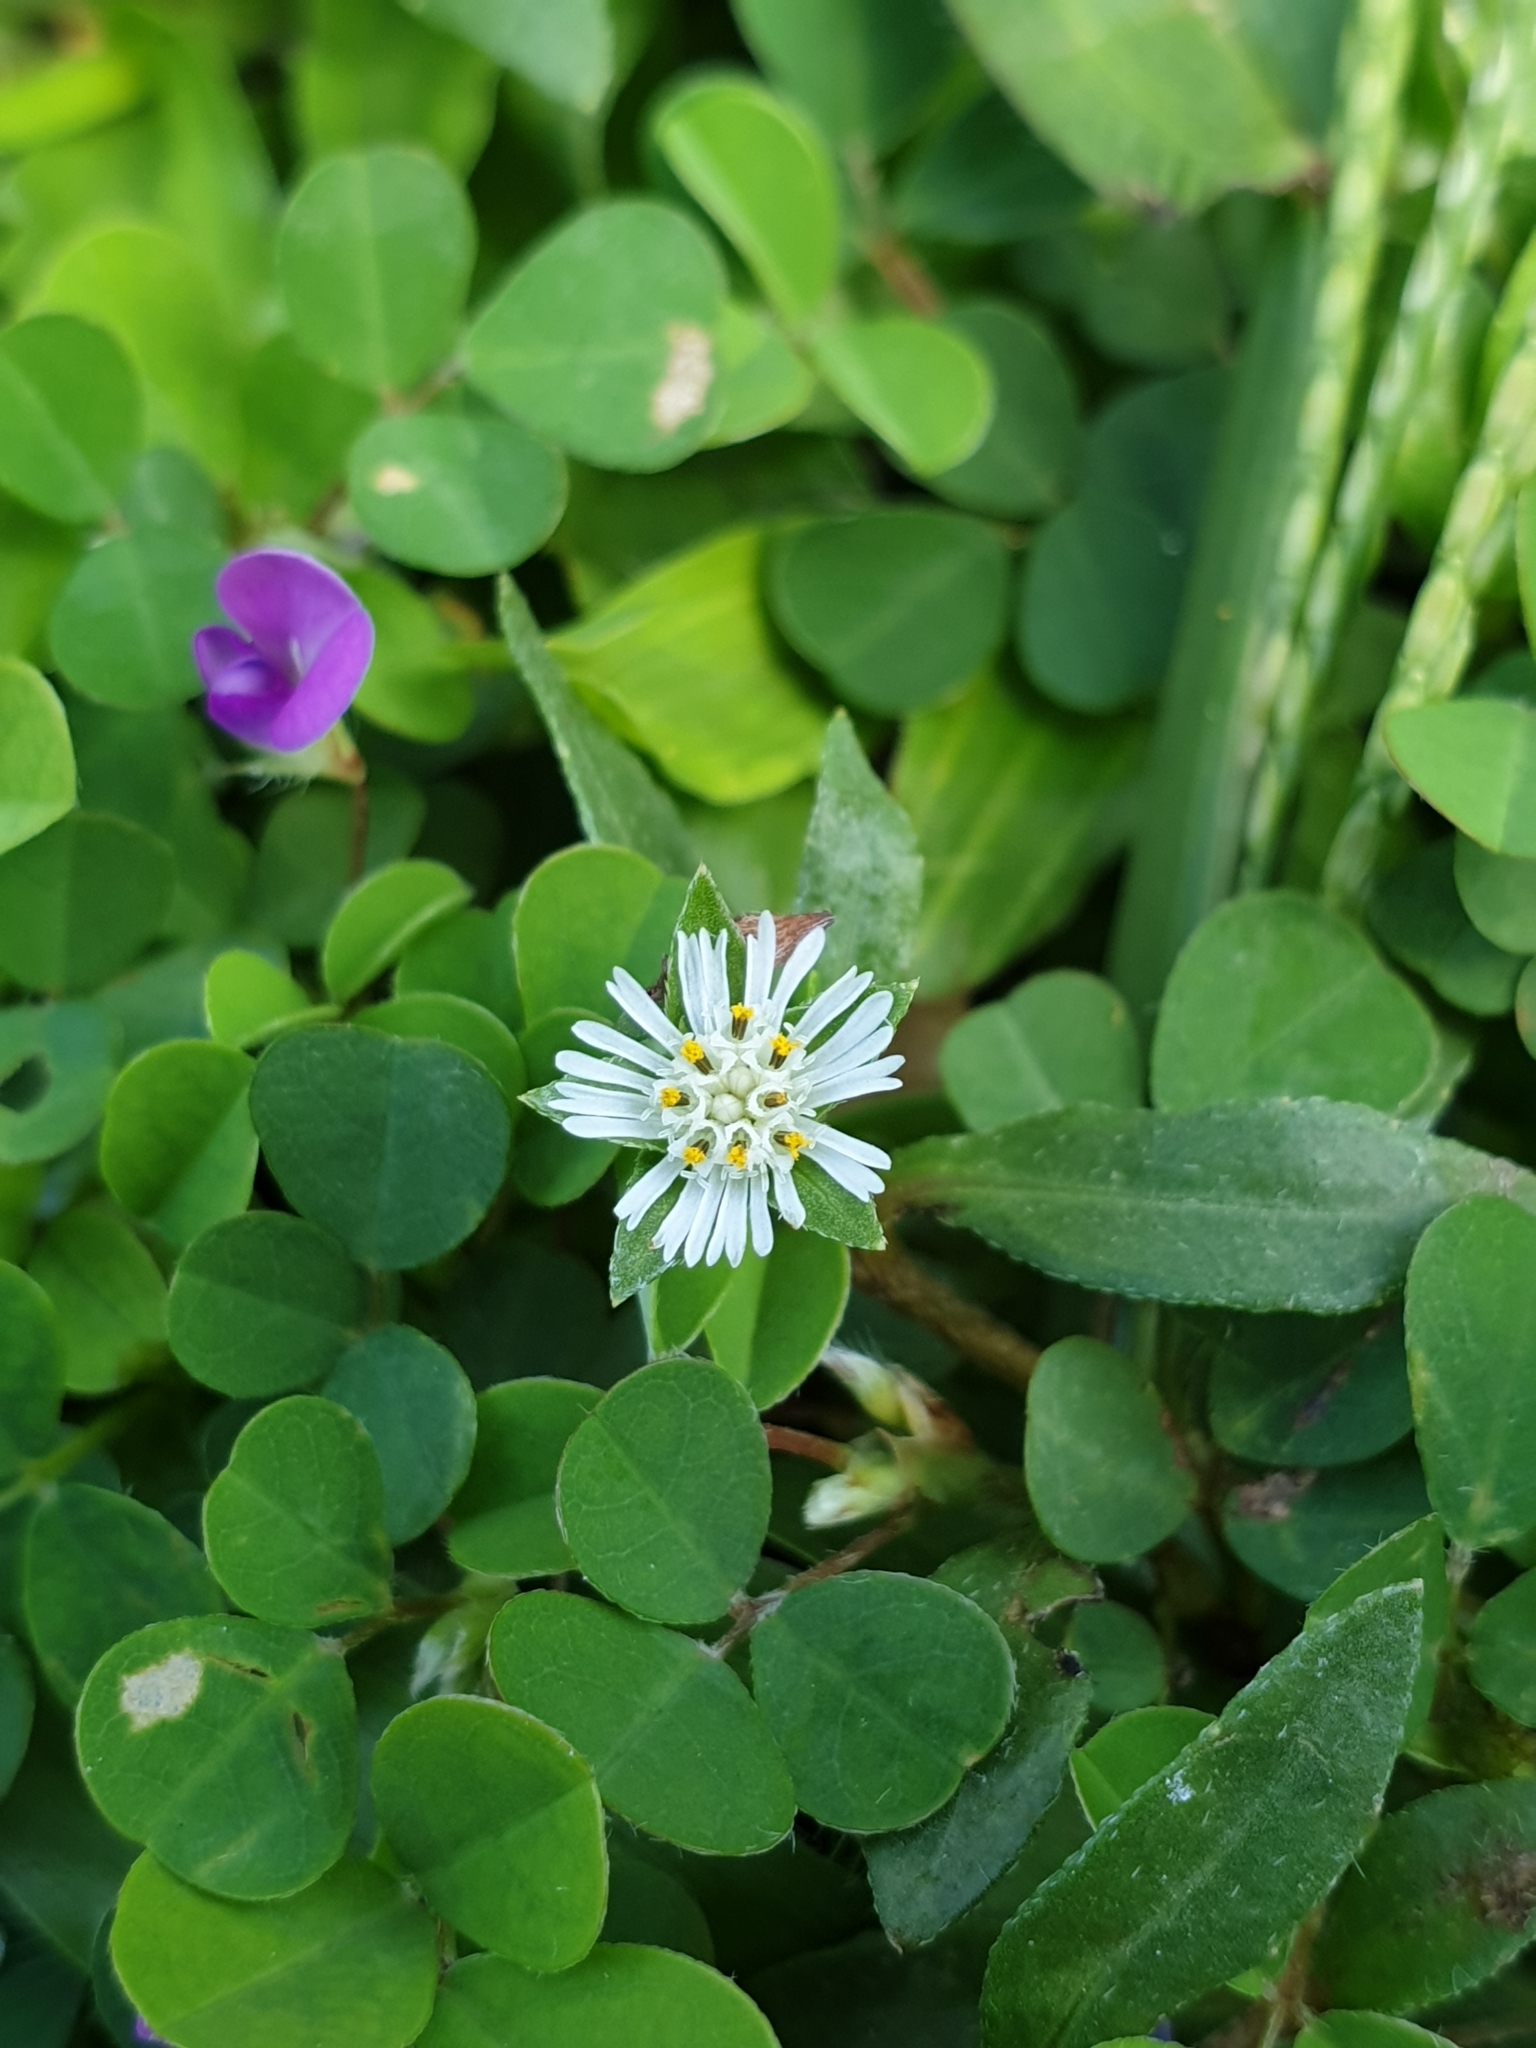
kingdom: Plantae
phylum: Tracheophyta
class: Magnoliopsida
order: Asterales
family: Asteraceae
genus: Eclipta
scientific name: Eclipta prostrata
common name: False daisy
